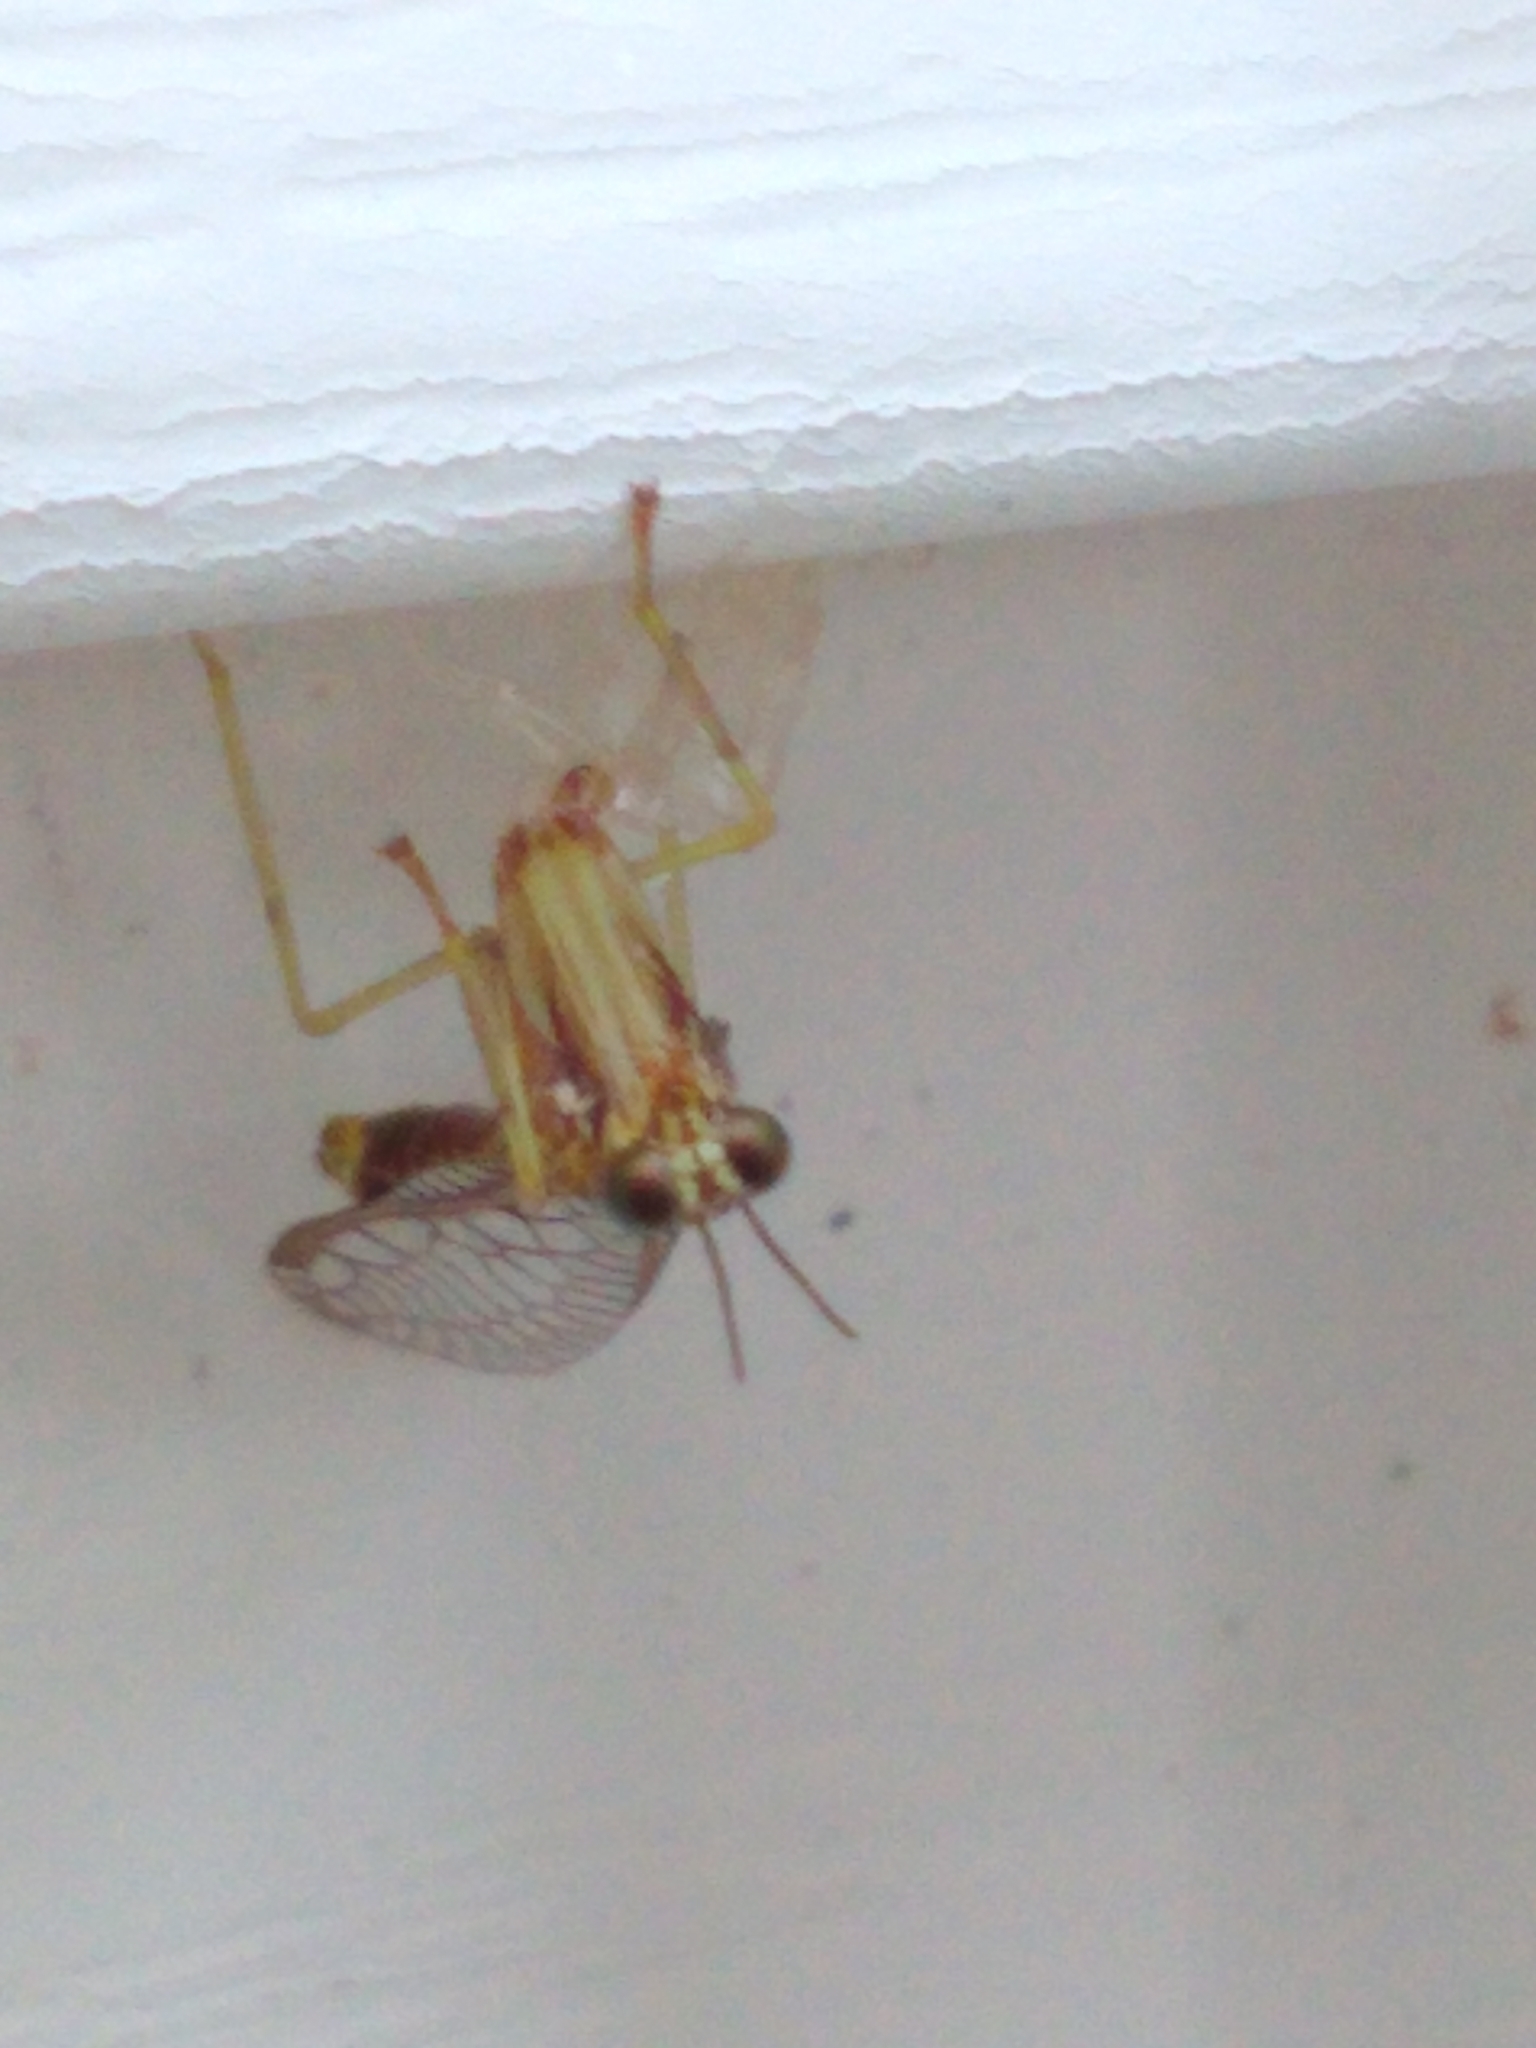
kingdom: Animalia
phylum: Arthropoda
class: Insecta
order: Neuroptera
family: Mantispidae
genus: Dicromantispa
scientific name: Dicromantispa sayi
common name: Say's mantidfly
